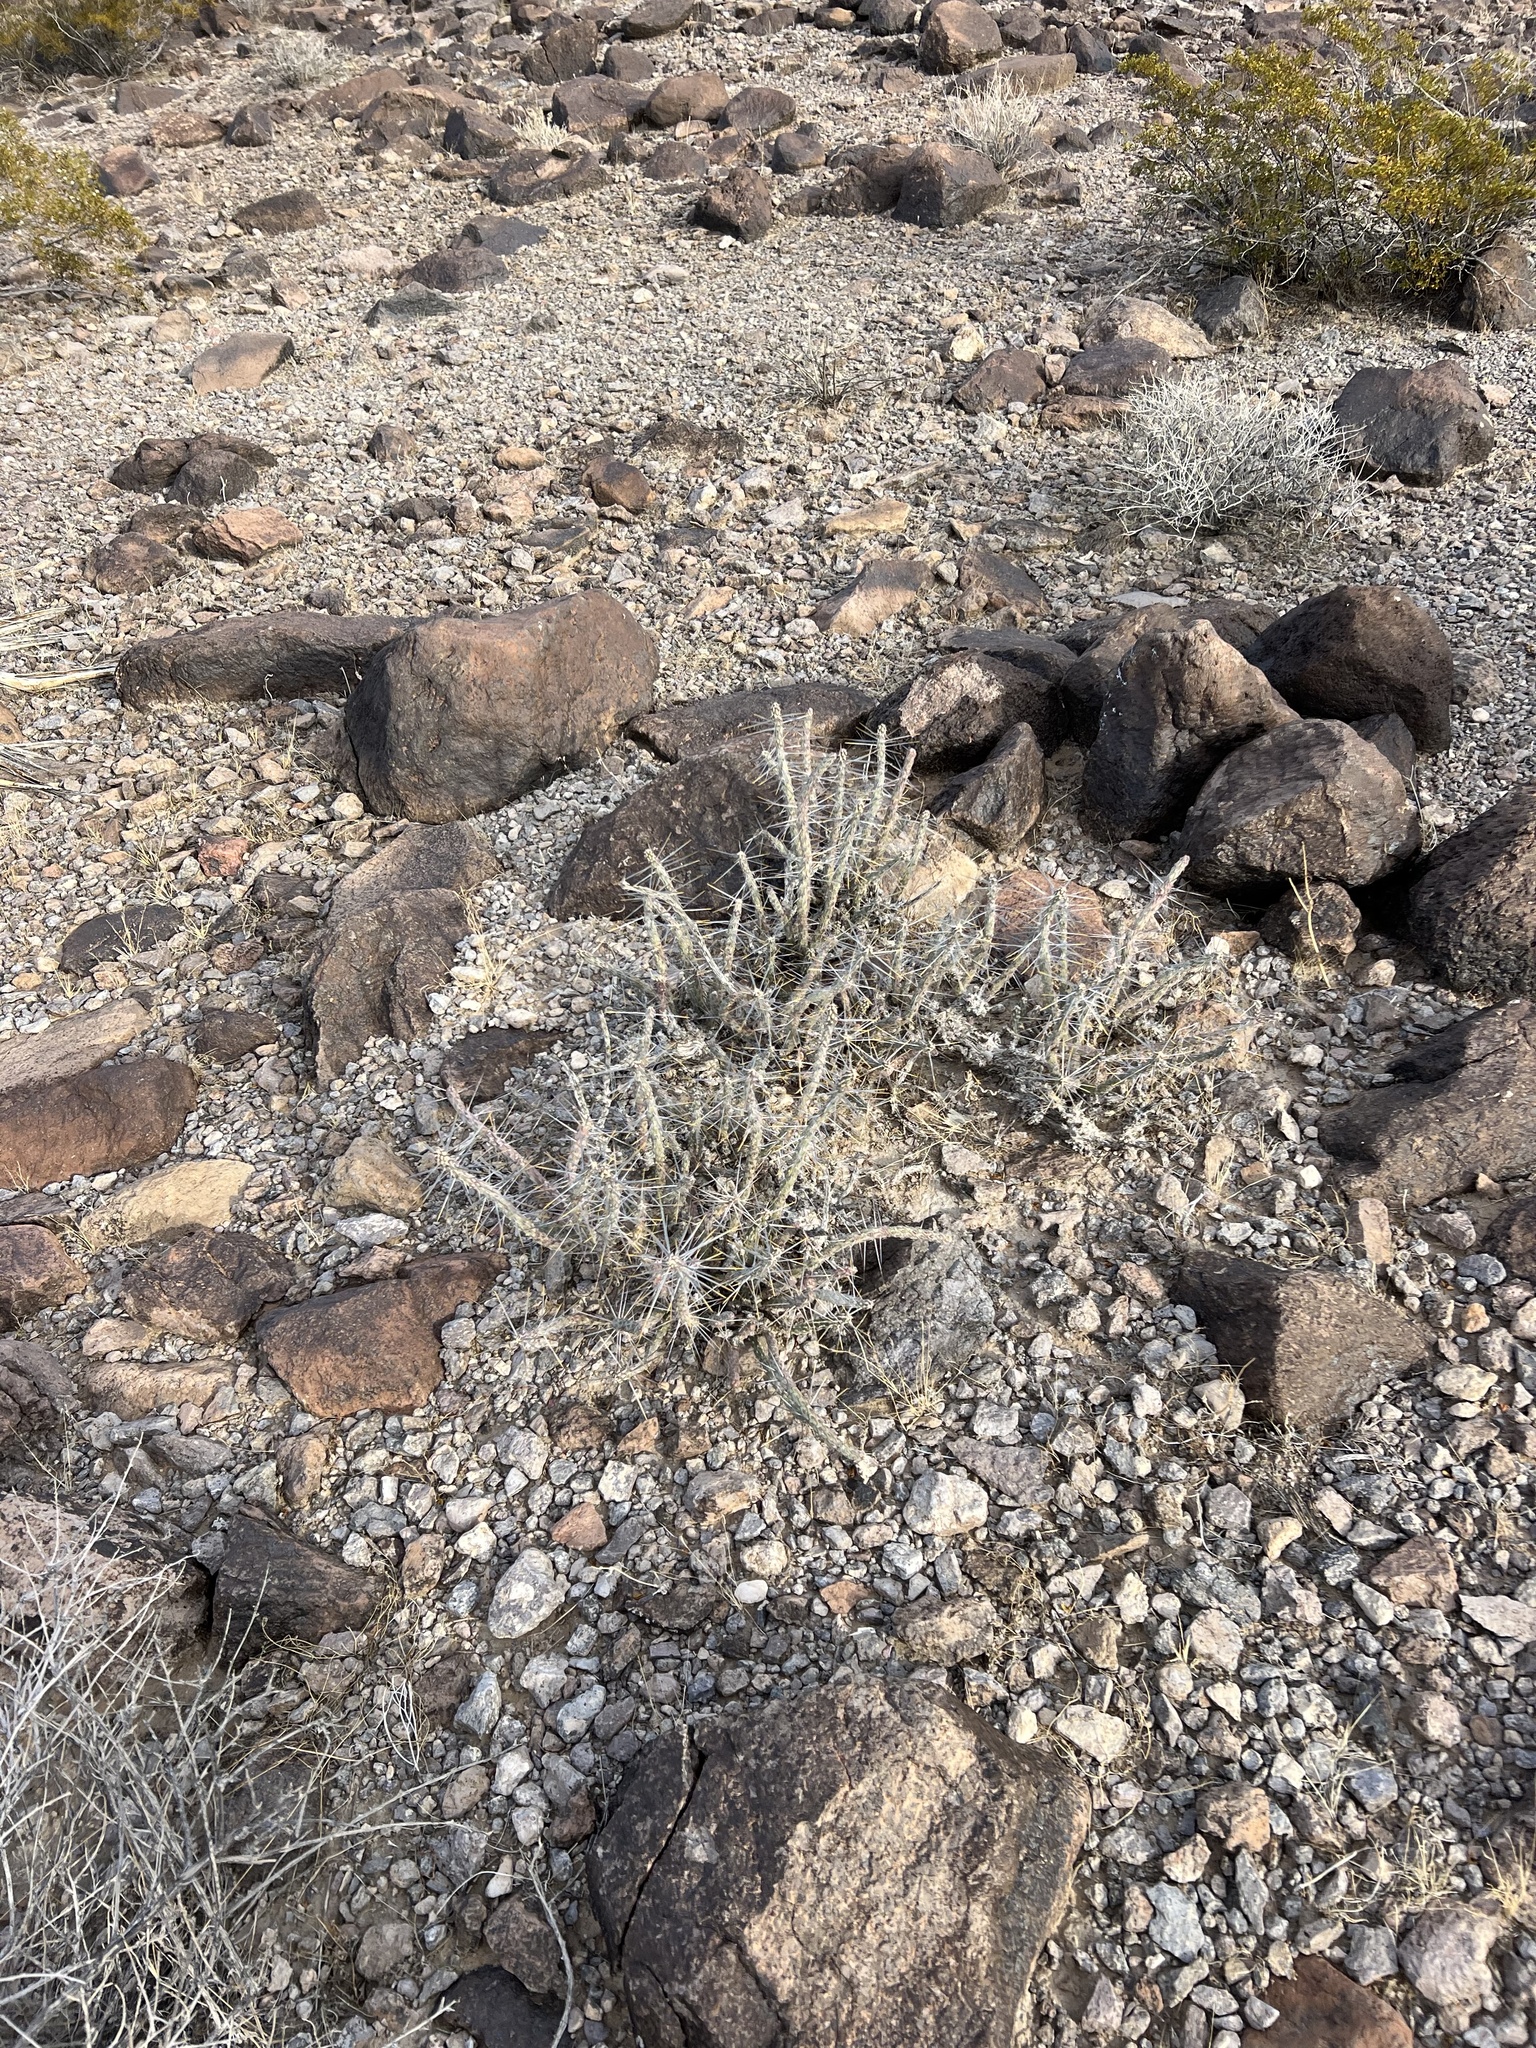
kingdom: Plantae
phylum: Tracheophyta
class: Magnoliopsida
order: Caryophyllales
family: Cactaceae
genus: Cylindropuntia
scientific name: Cylindropuntia ramosissima
